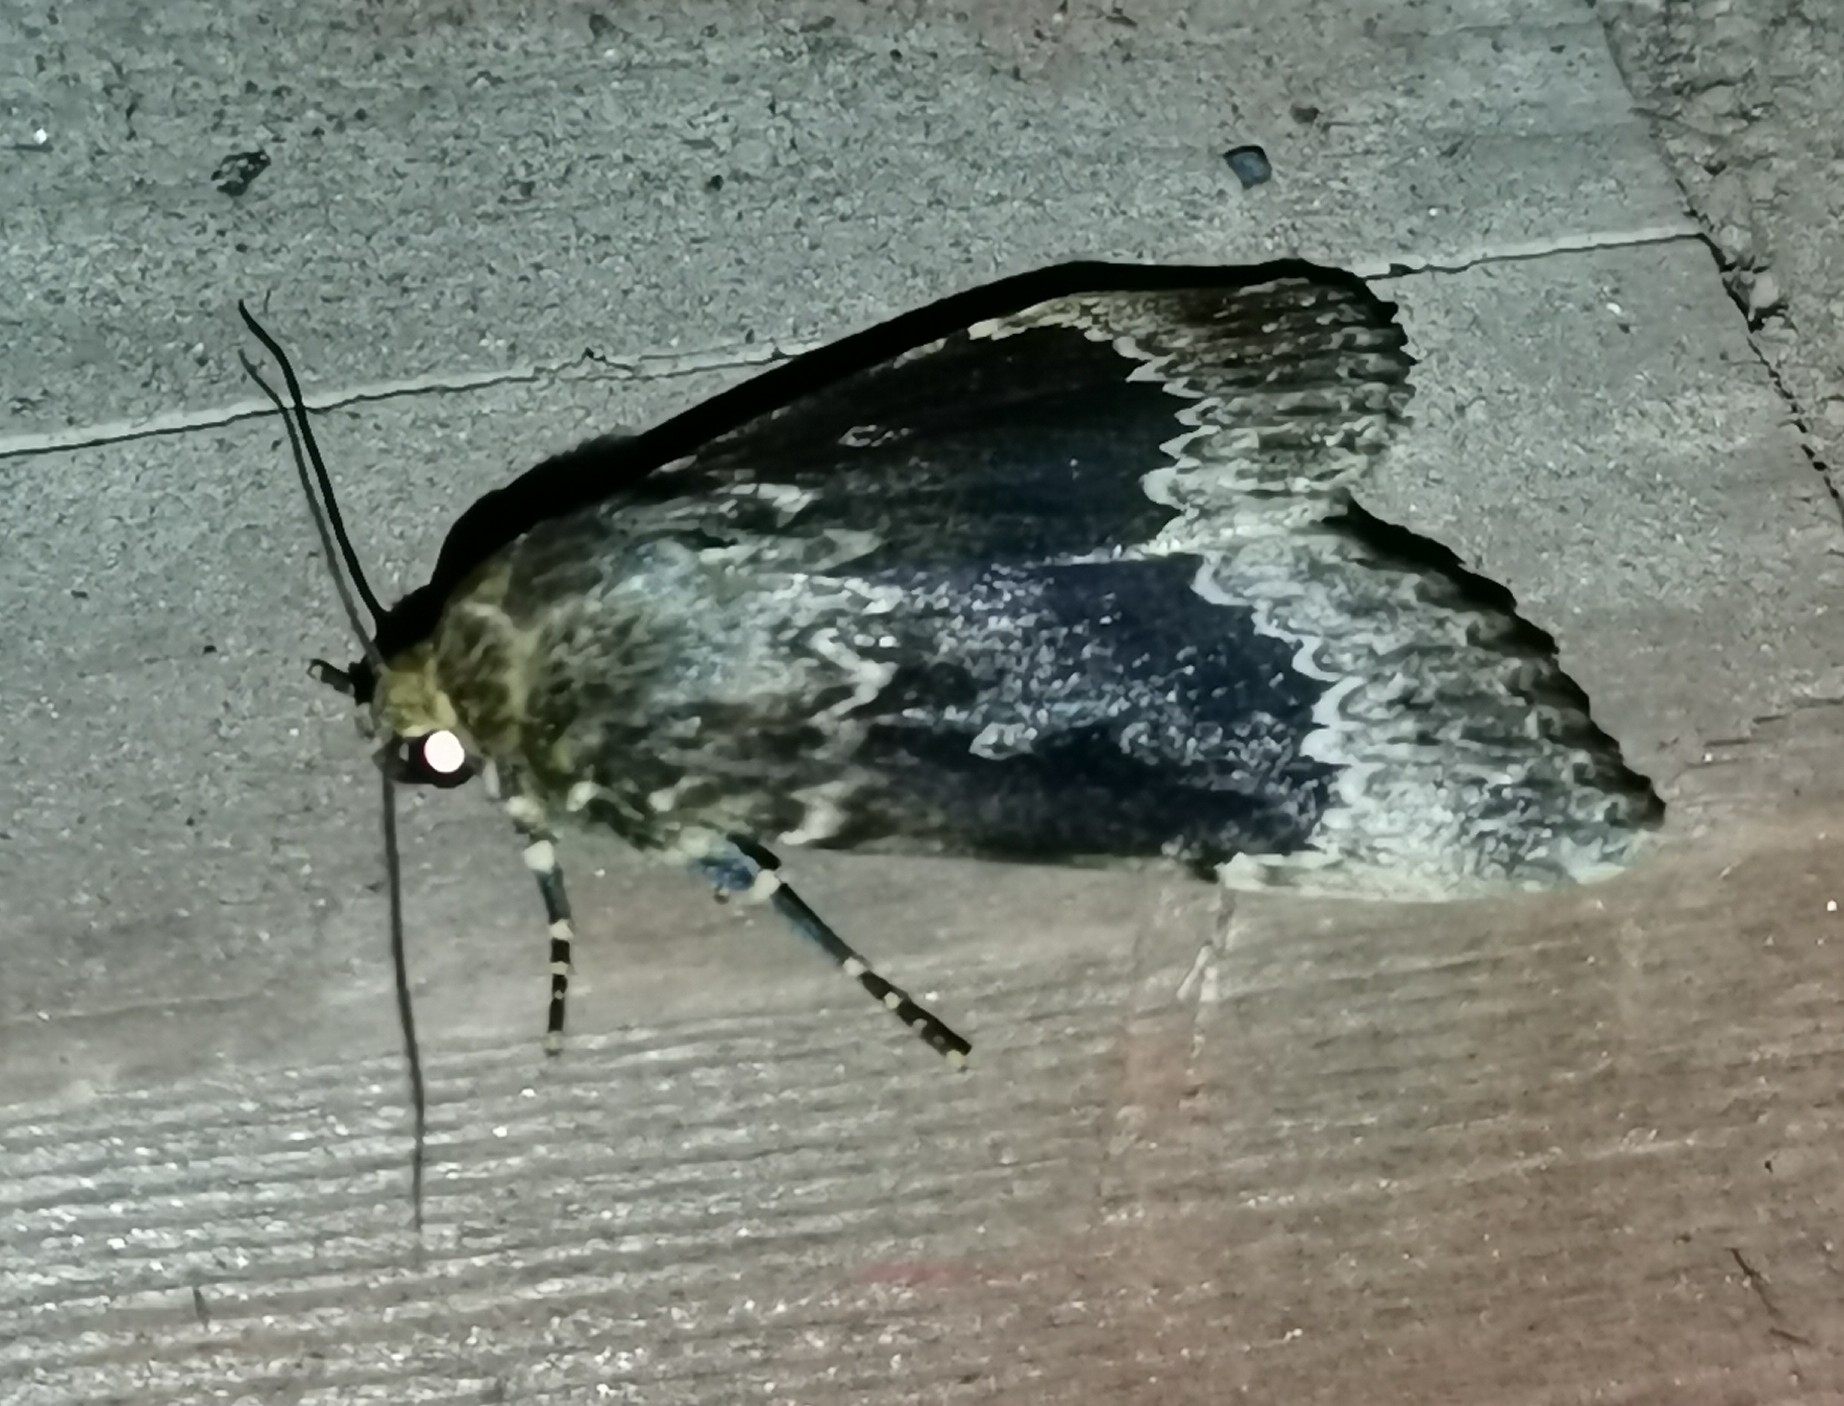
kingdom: Animalia
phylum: Arthropoda
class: Insecta
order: Lepidoptera
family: Noctuidae
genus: Amphipyra
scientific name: Amphipyra perflua
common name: Larger pale-tipped black moth
